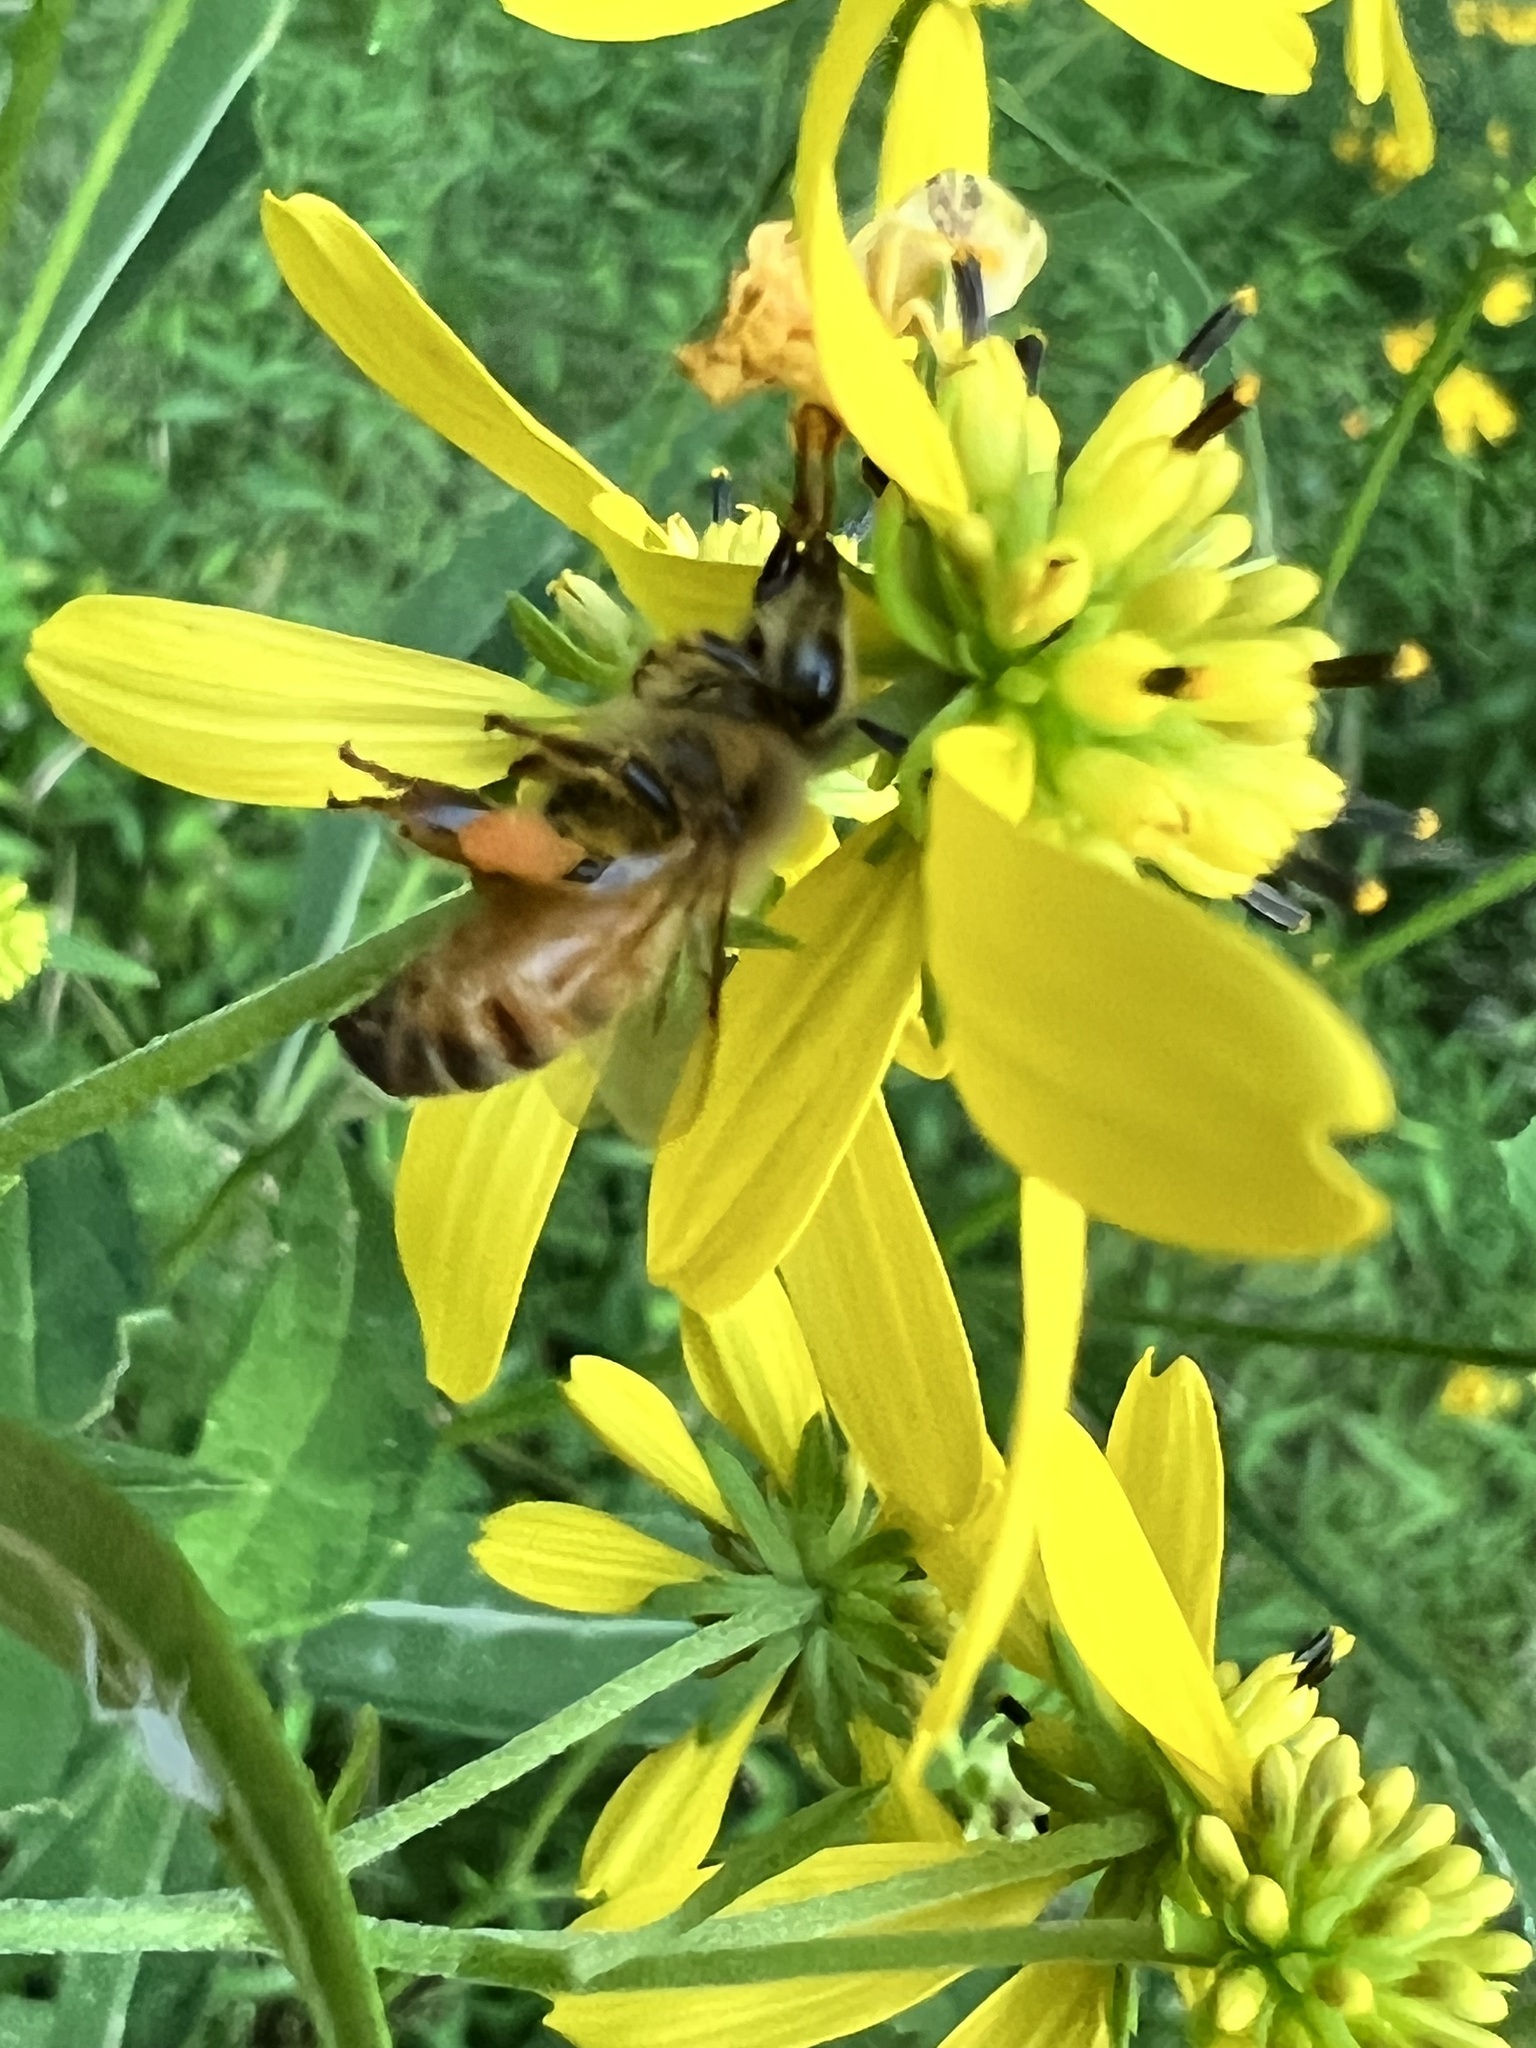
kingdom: Animalia
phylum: Arthropoda
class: Insecta
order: Hymenoptera
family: Apidae
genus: Apis
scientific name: Apis mellifera
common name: Honey bee
